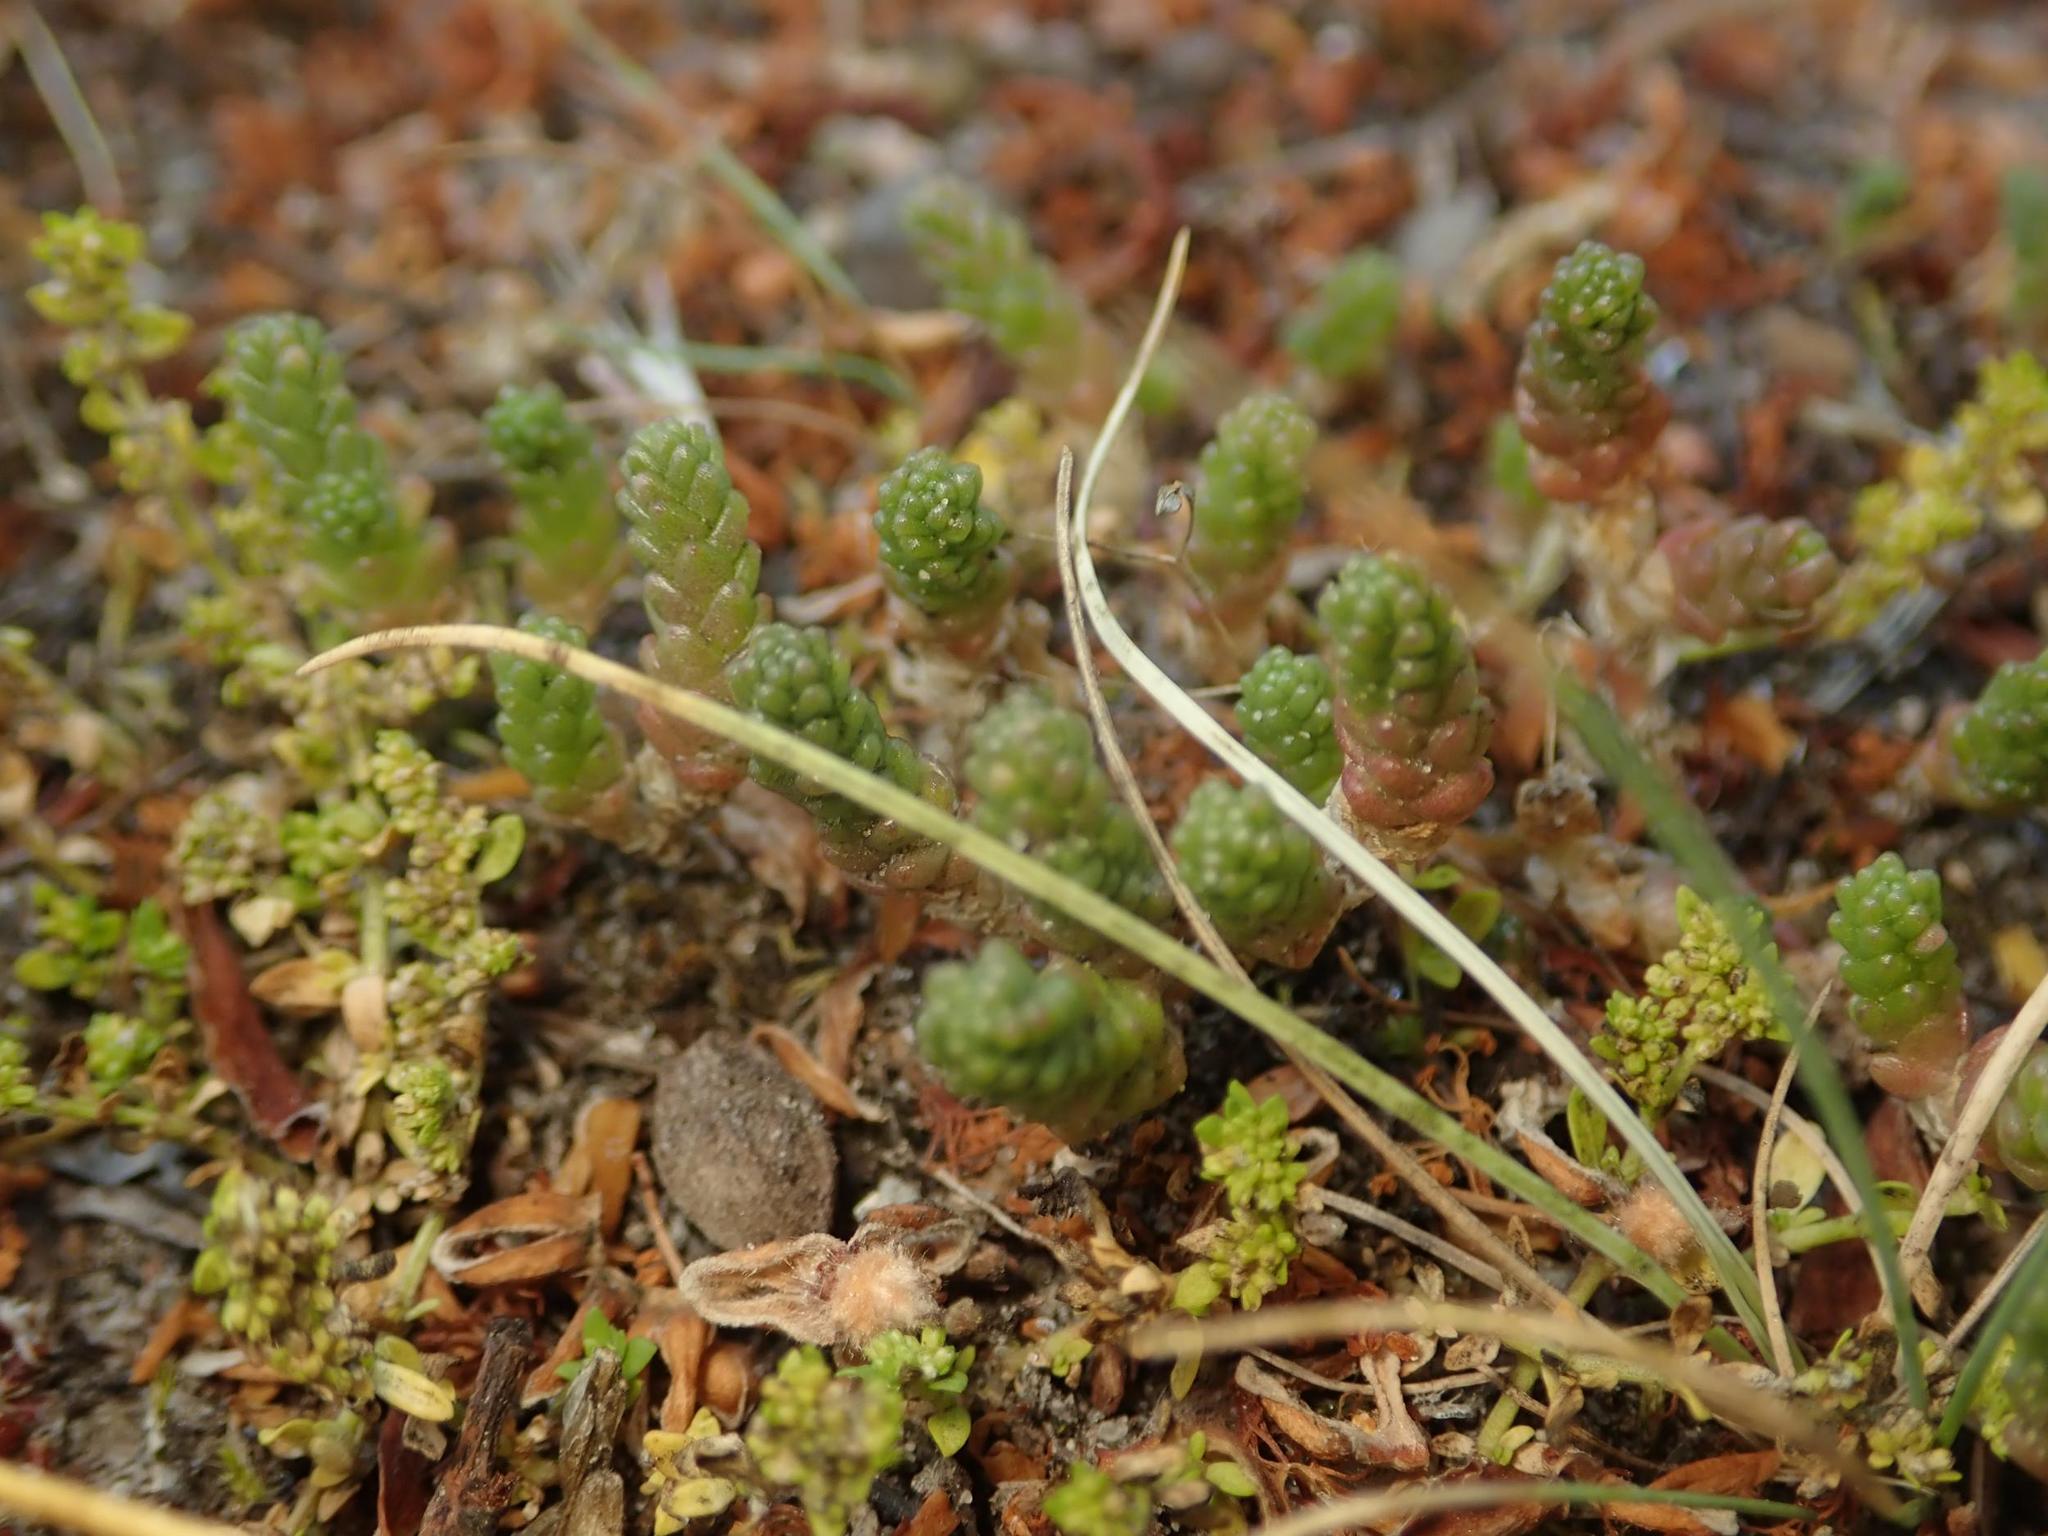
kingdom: Plantae
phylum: Tracheophyta
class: Magnoliopsida
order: Saxifragales
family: Crassulaceae
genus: Sedum
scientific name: Sedum acre
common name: Biting stonecrop
